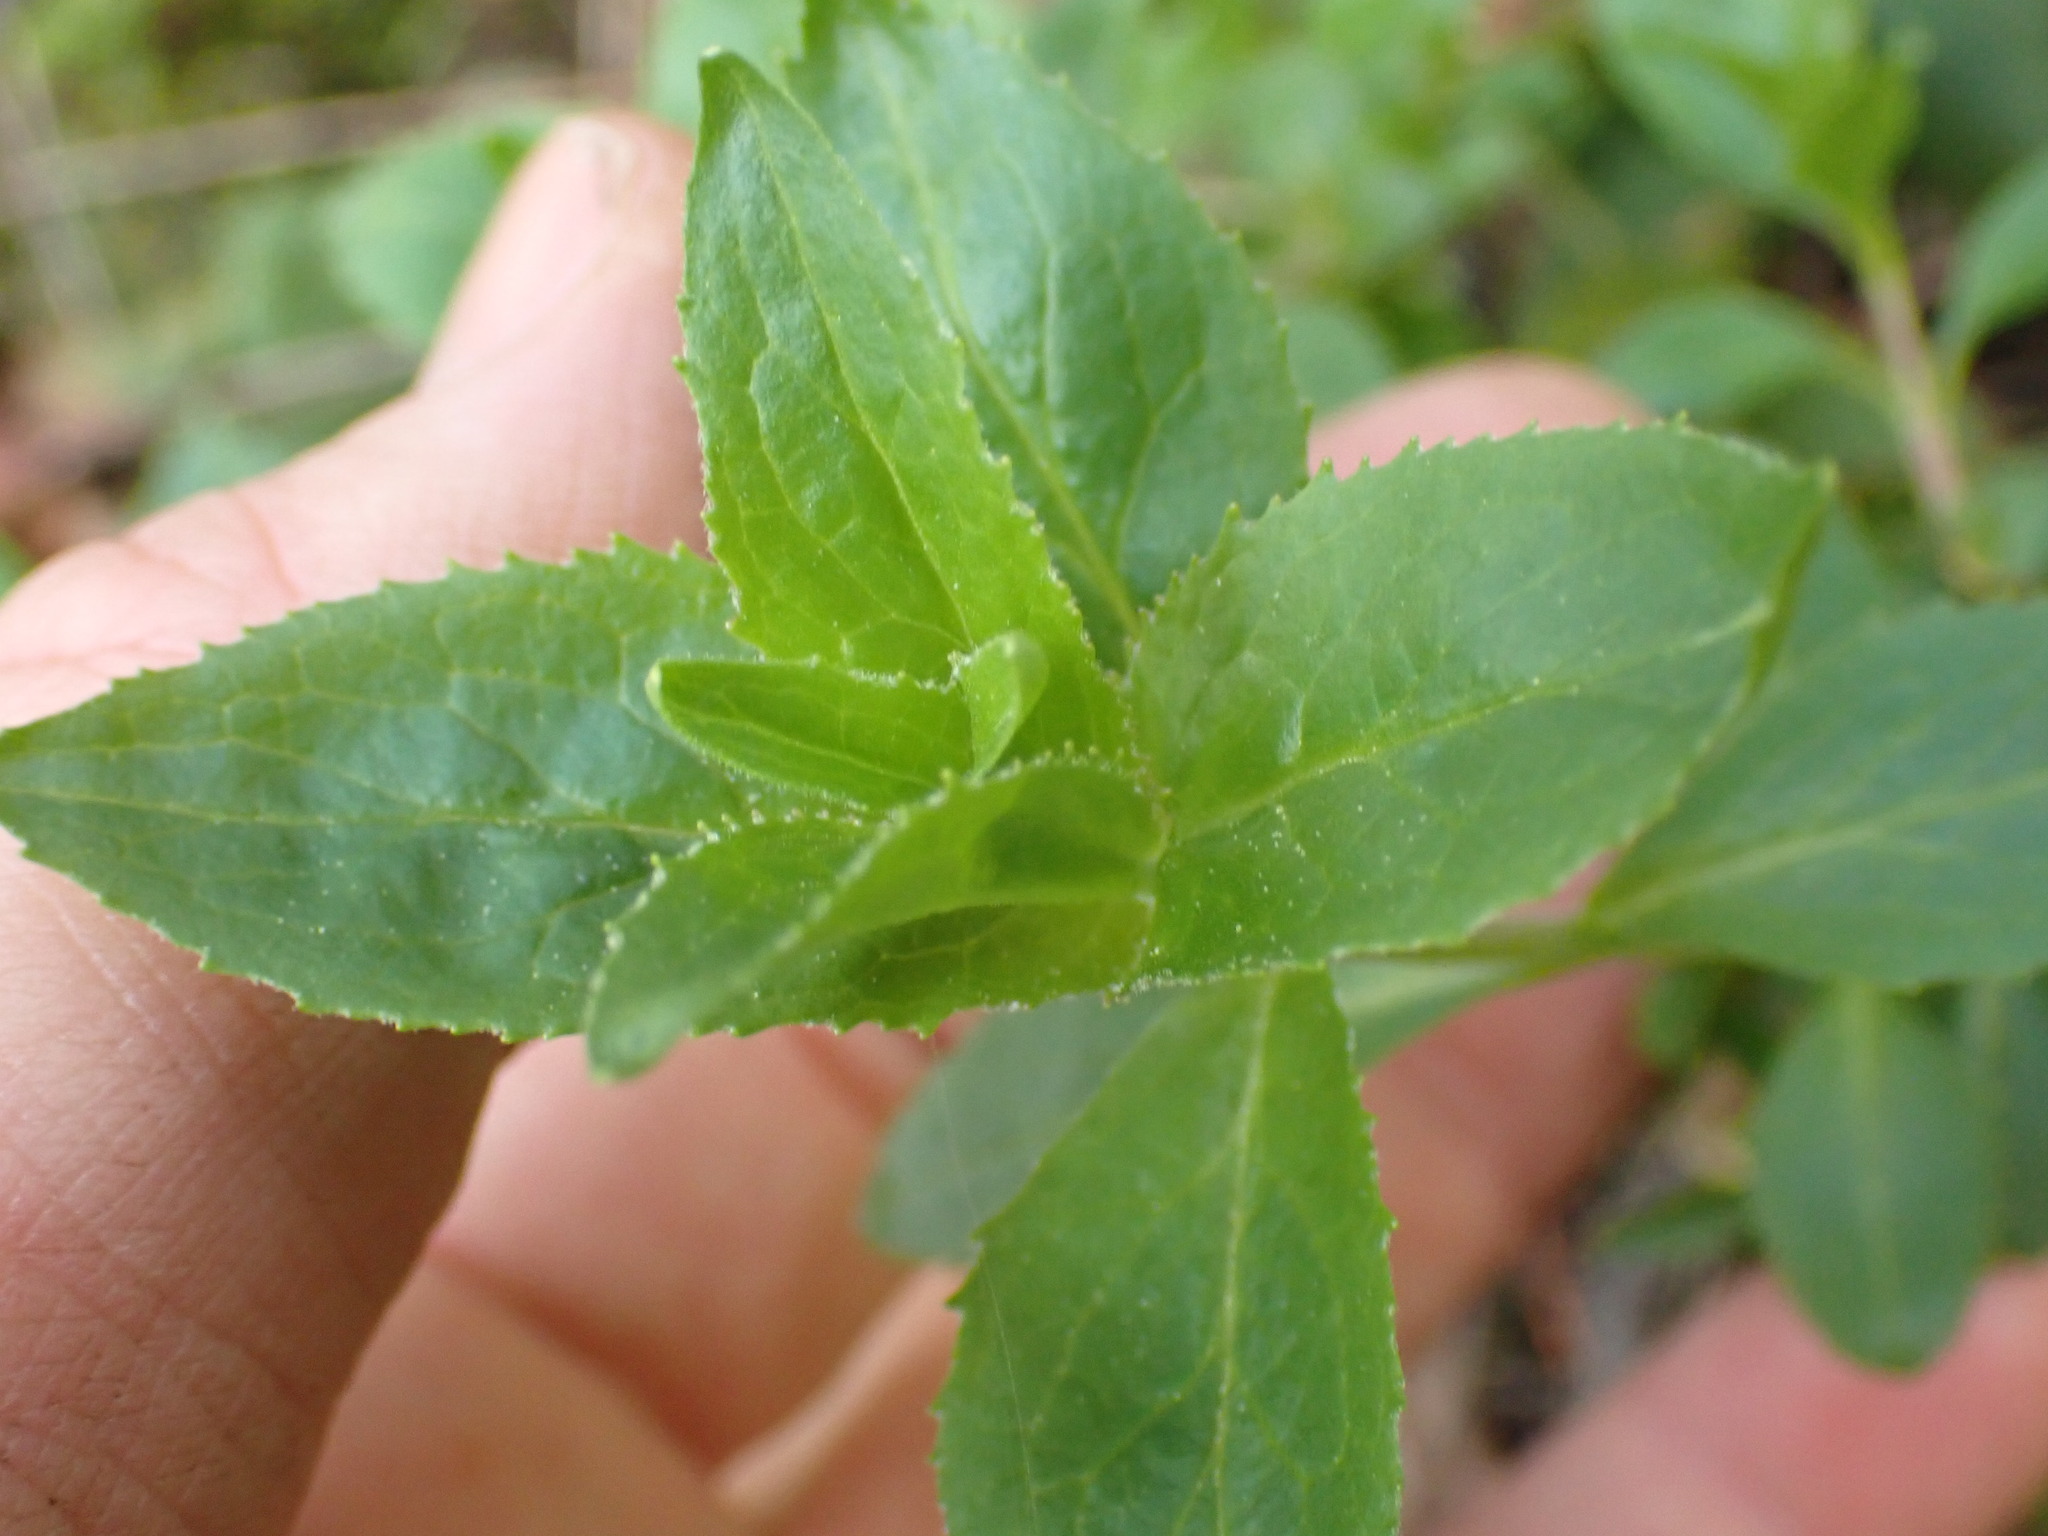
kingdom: Plantae
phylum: Tracheophyta
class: Magnoliopsida
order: Lamiales
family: Plantaginaceae
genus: Penstemon
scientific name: Penstemon serrulatus
